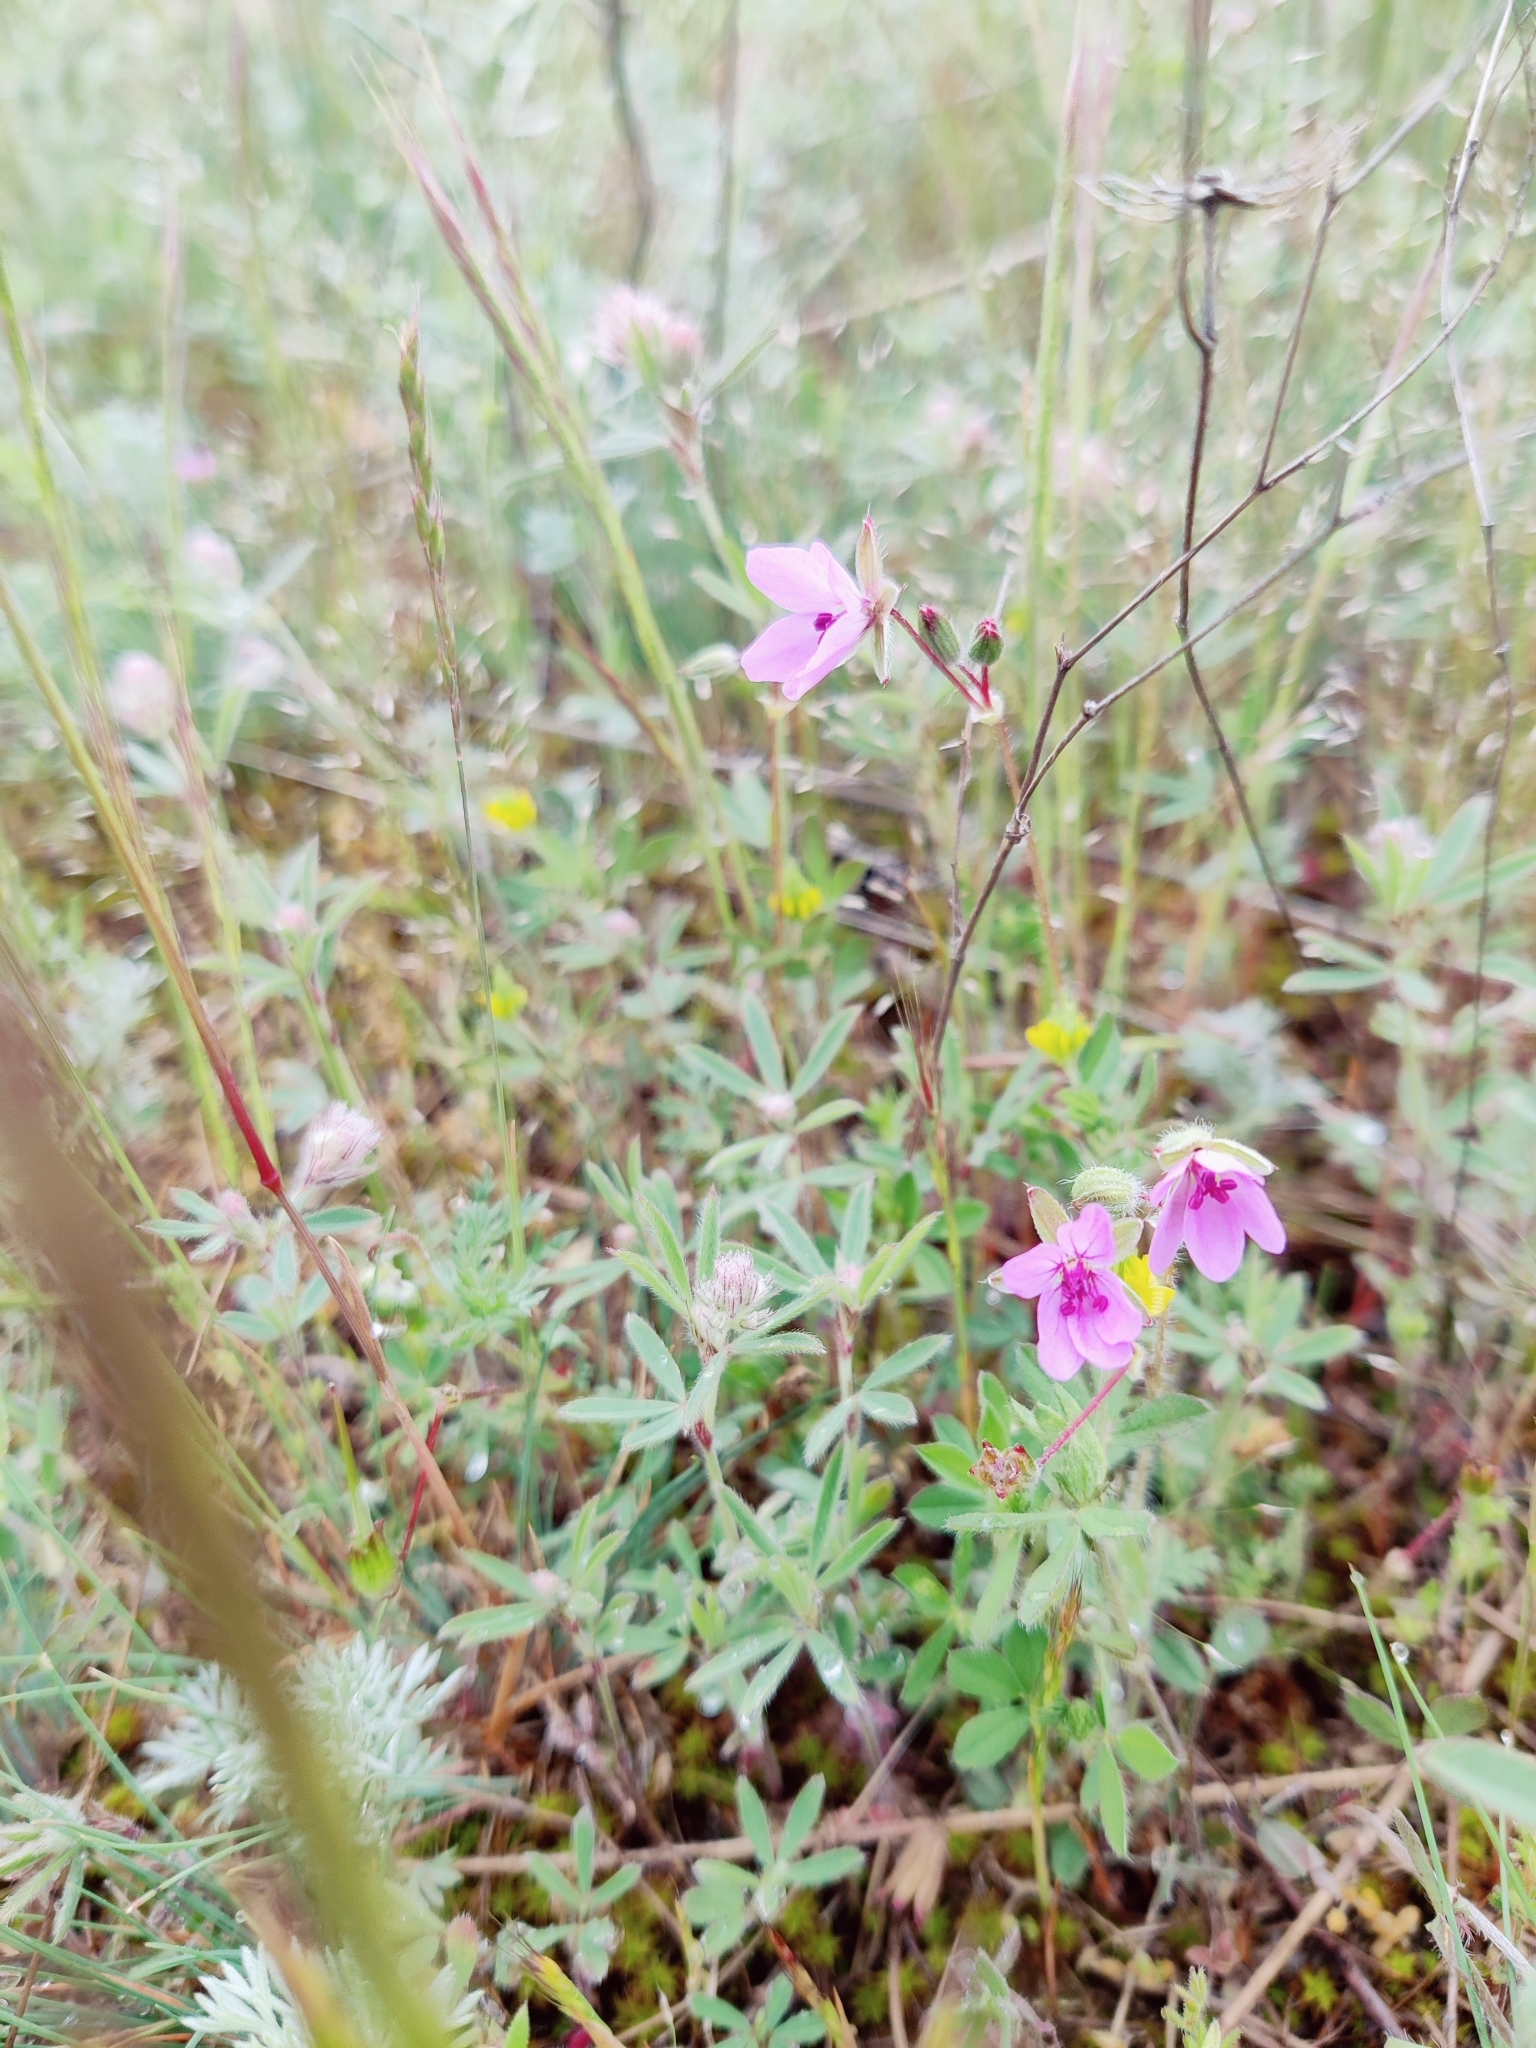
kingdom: Plantae
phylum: Tracheophyta
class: Magnoliopsida
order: Geraniales
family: Geraniaceae
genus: Erodium
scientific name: Erodium cicutarium
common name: Common stork's-bill
